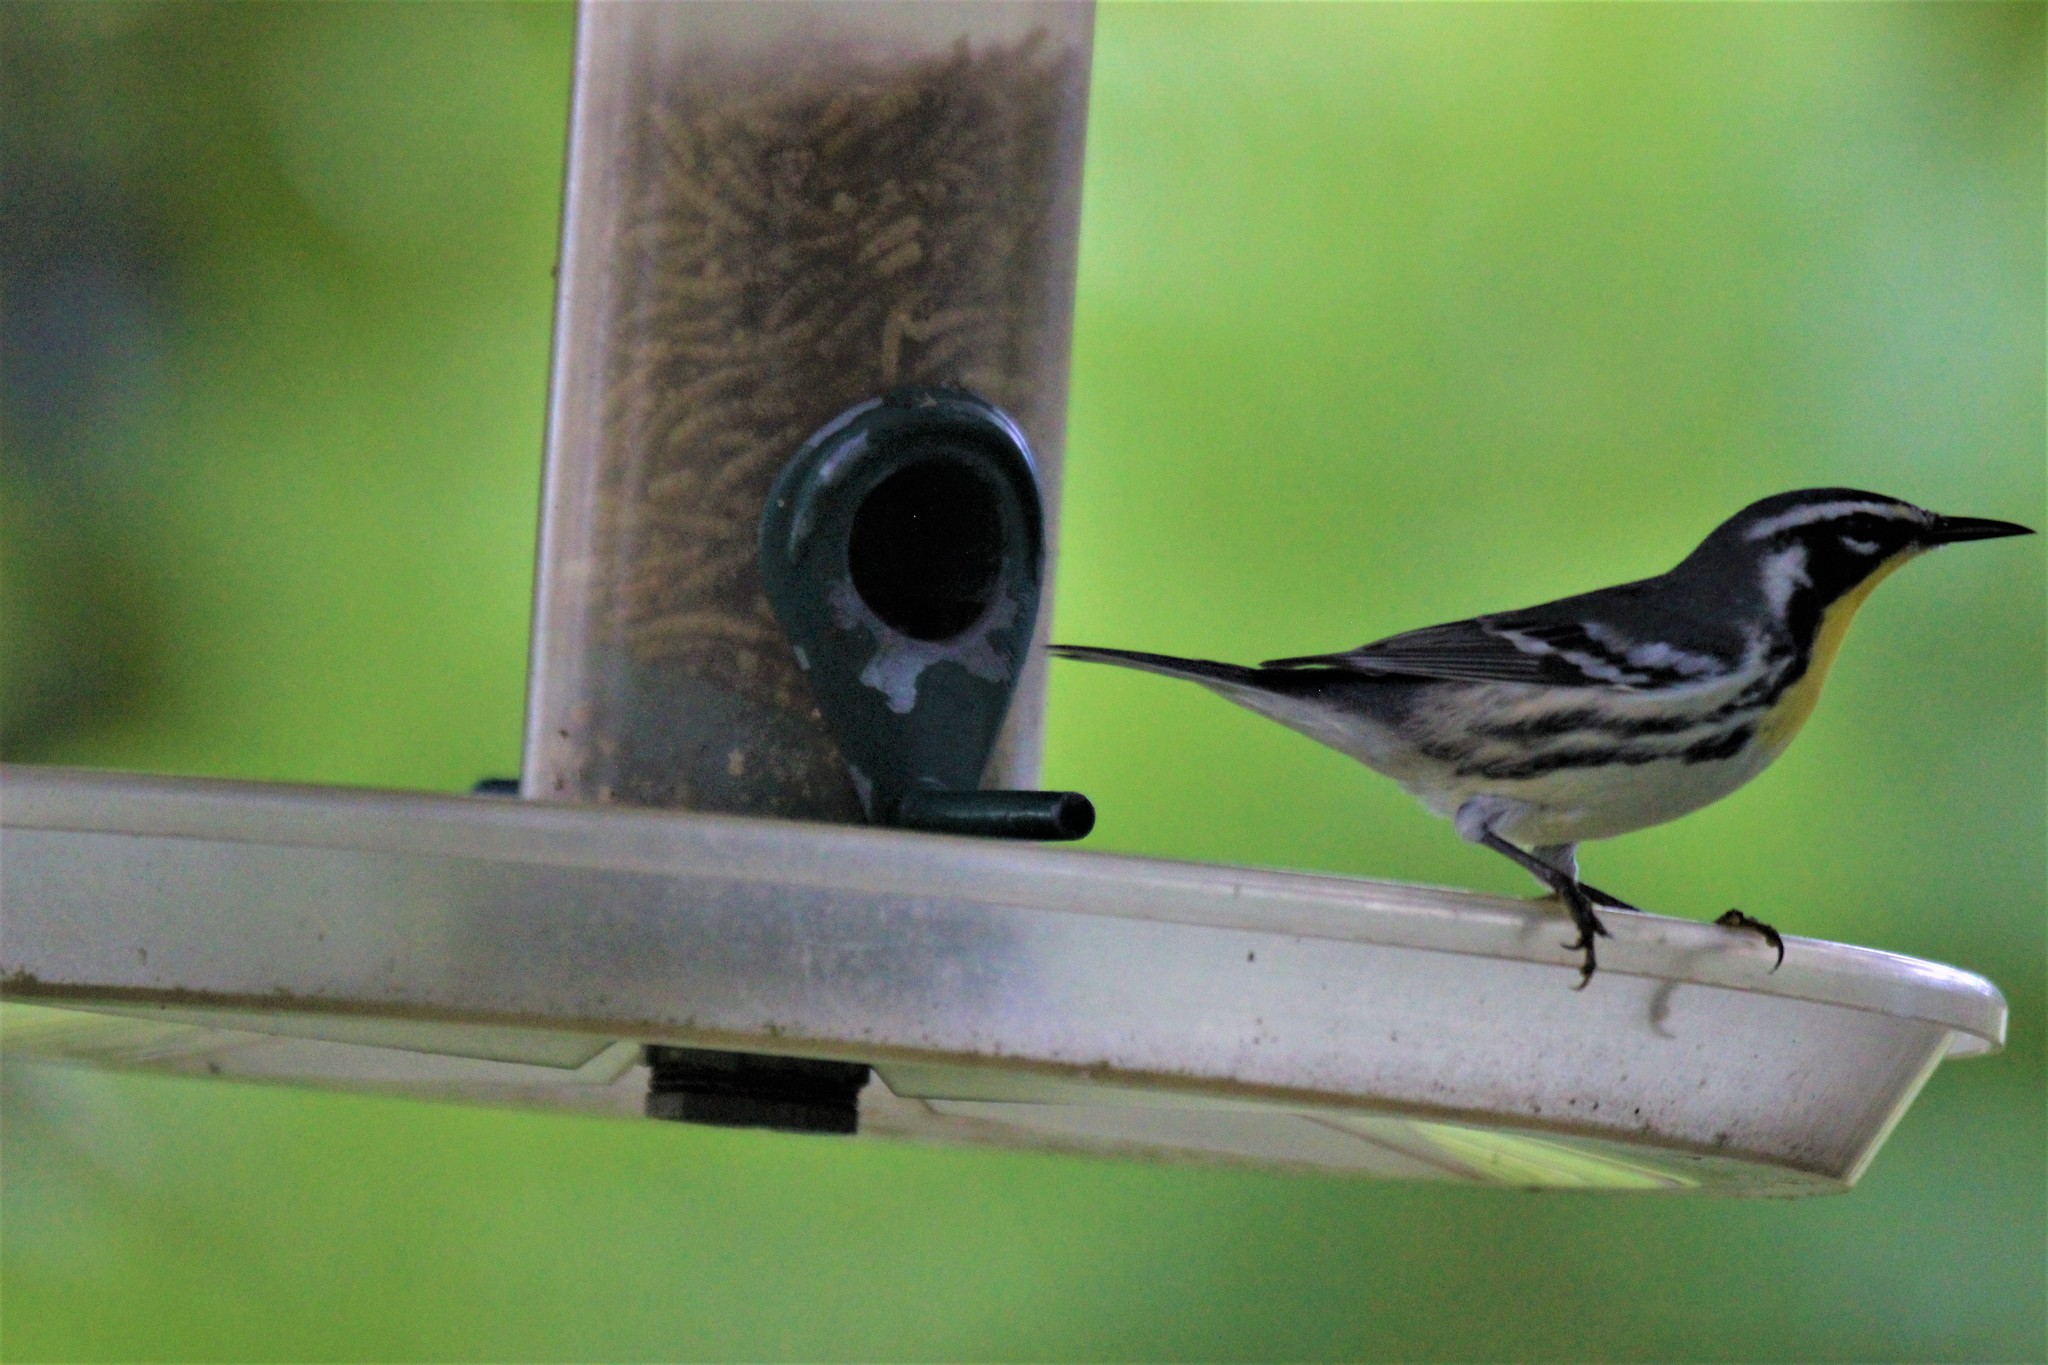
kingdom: Animalia
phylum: Chordata
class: Aves
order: Passeriformes
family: Parulidae
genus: Setophaga
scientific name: Setophaga dominica
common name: Yellow-throated warbler
